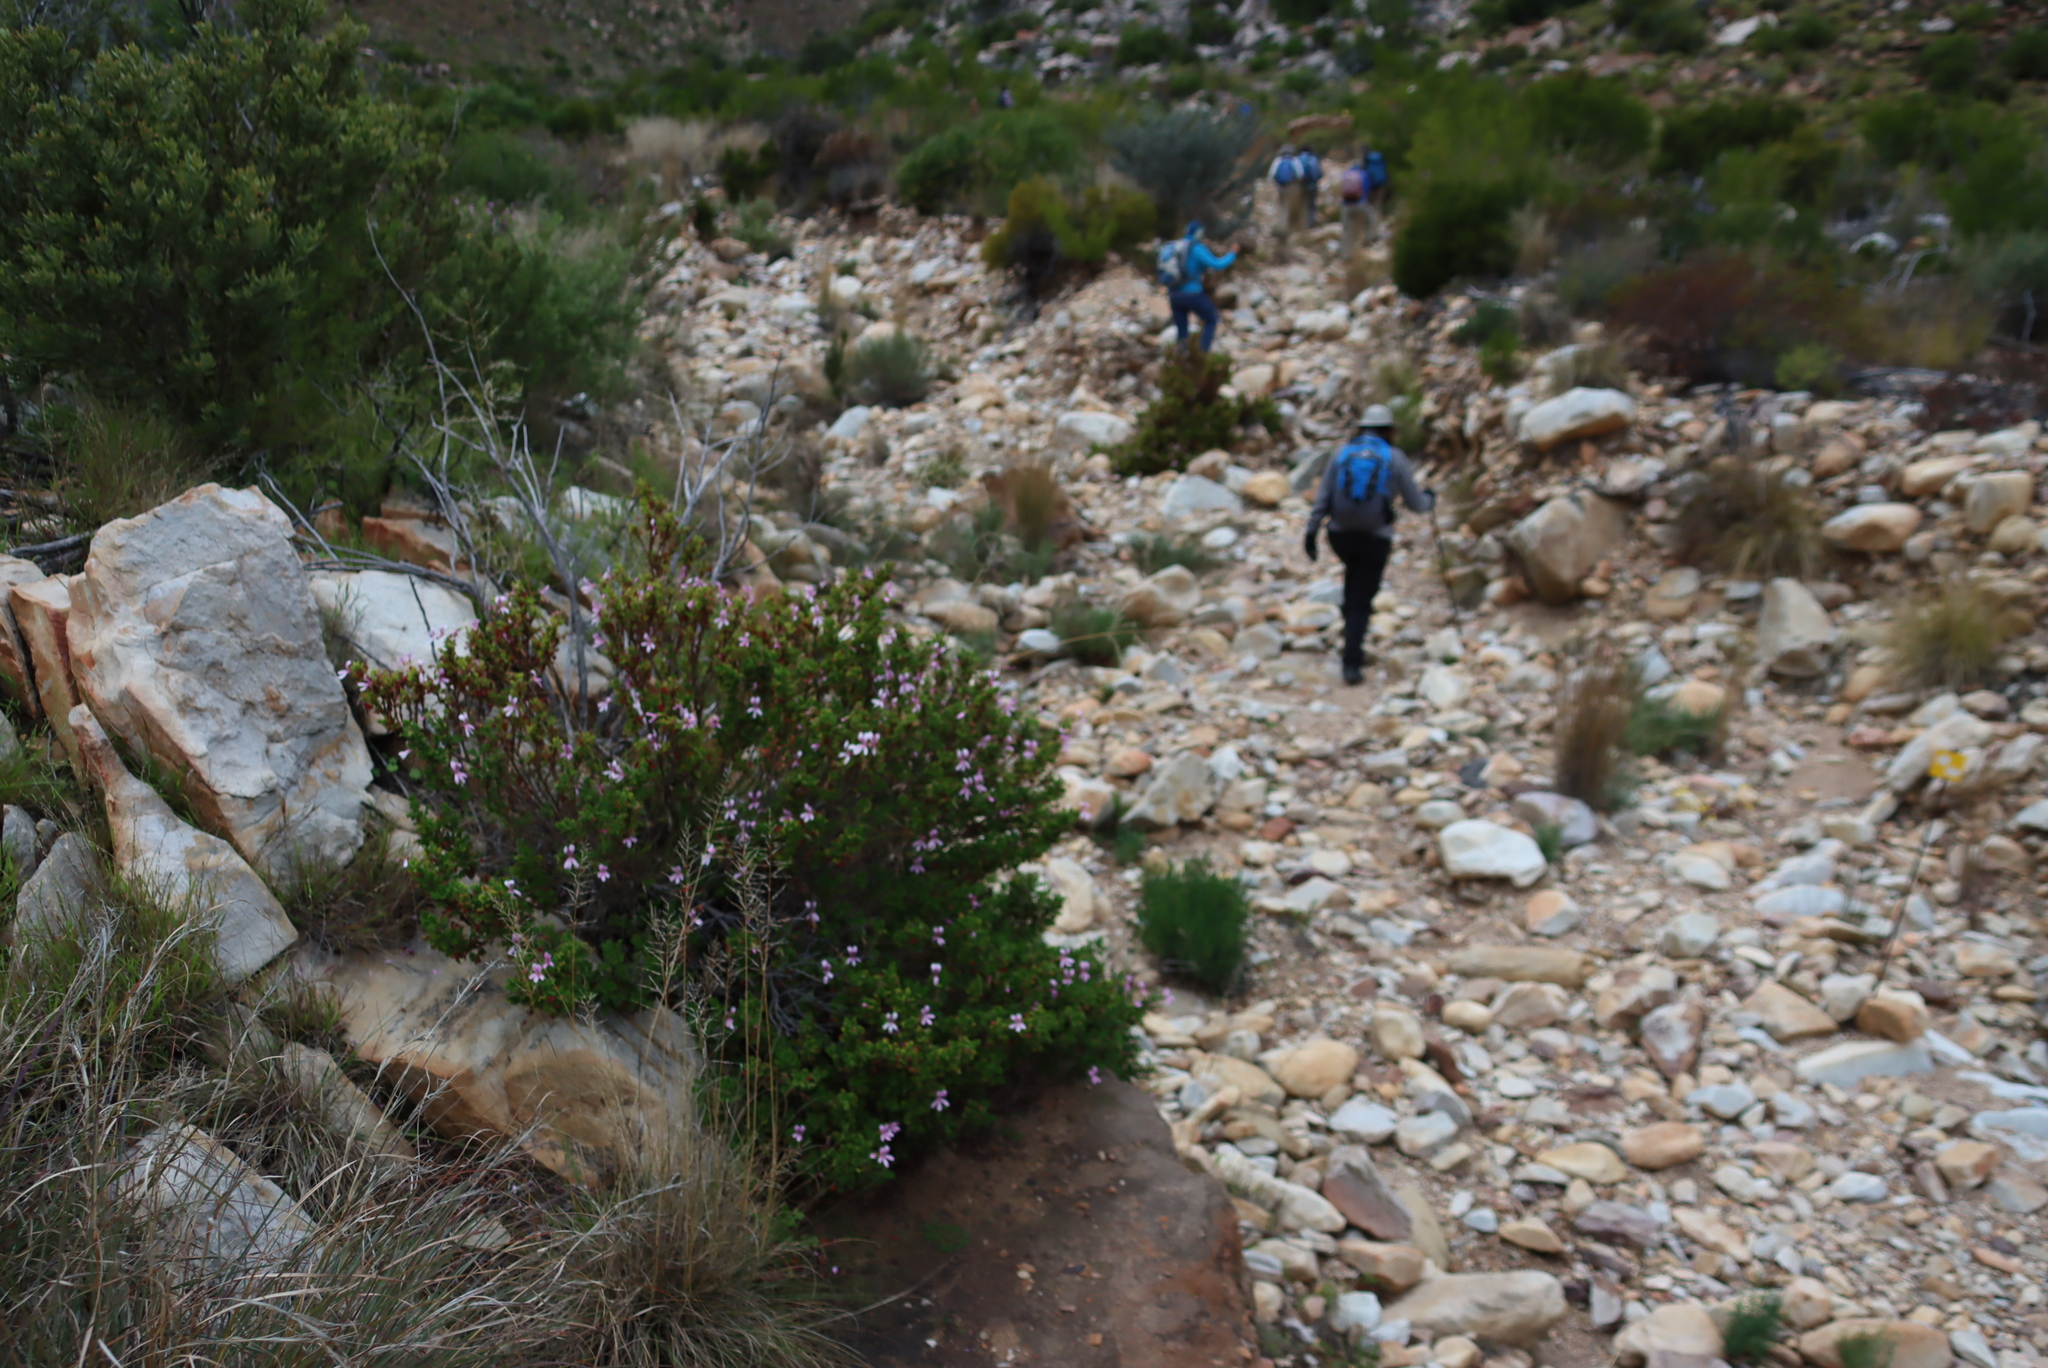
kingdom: Plantae
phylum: Tracheophyta
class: Magnoliopsida
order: Geraniales
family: Geraniaceae
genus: Pelargonium
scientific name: Pelargonium panduriforme
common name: Oakleaf garden geranium
